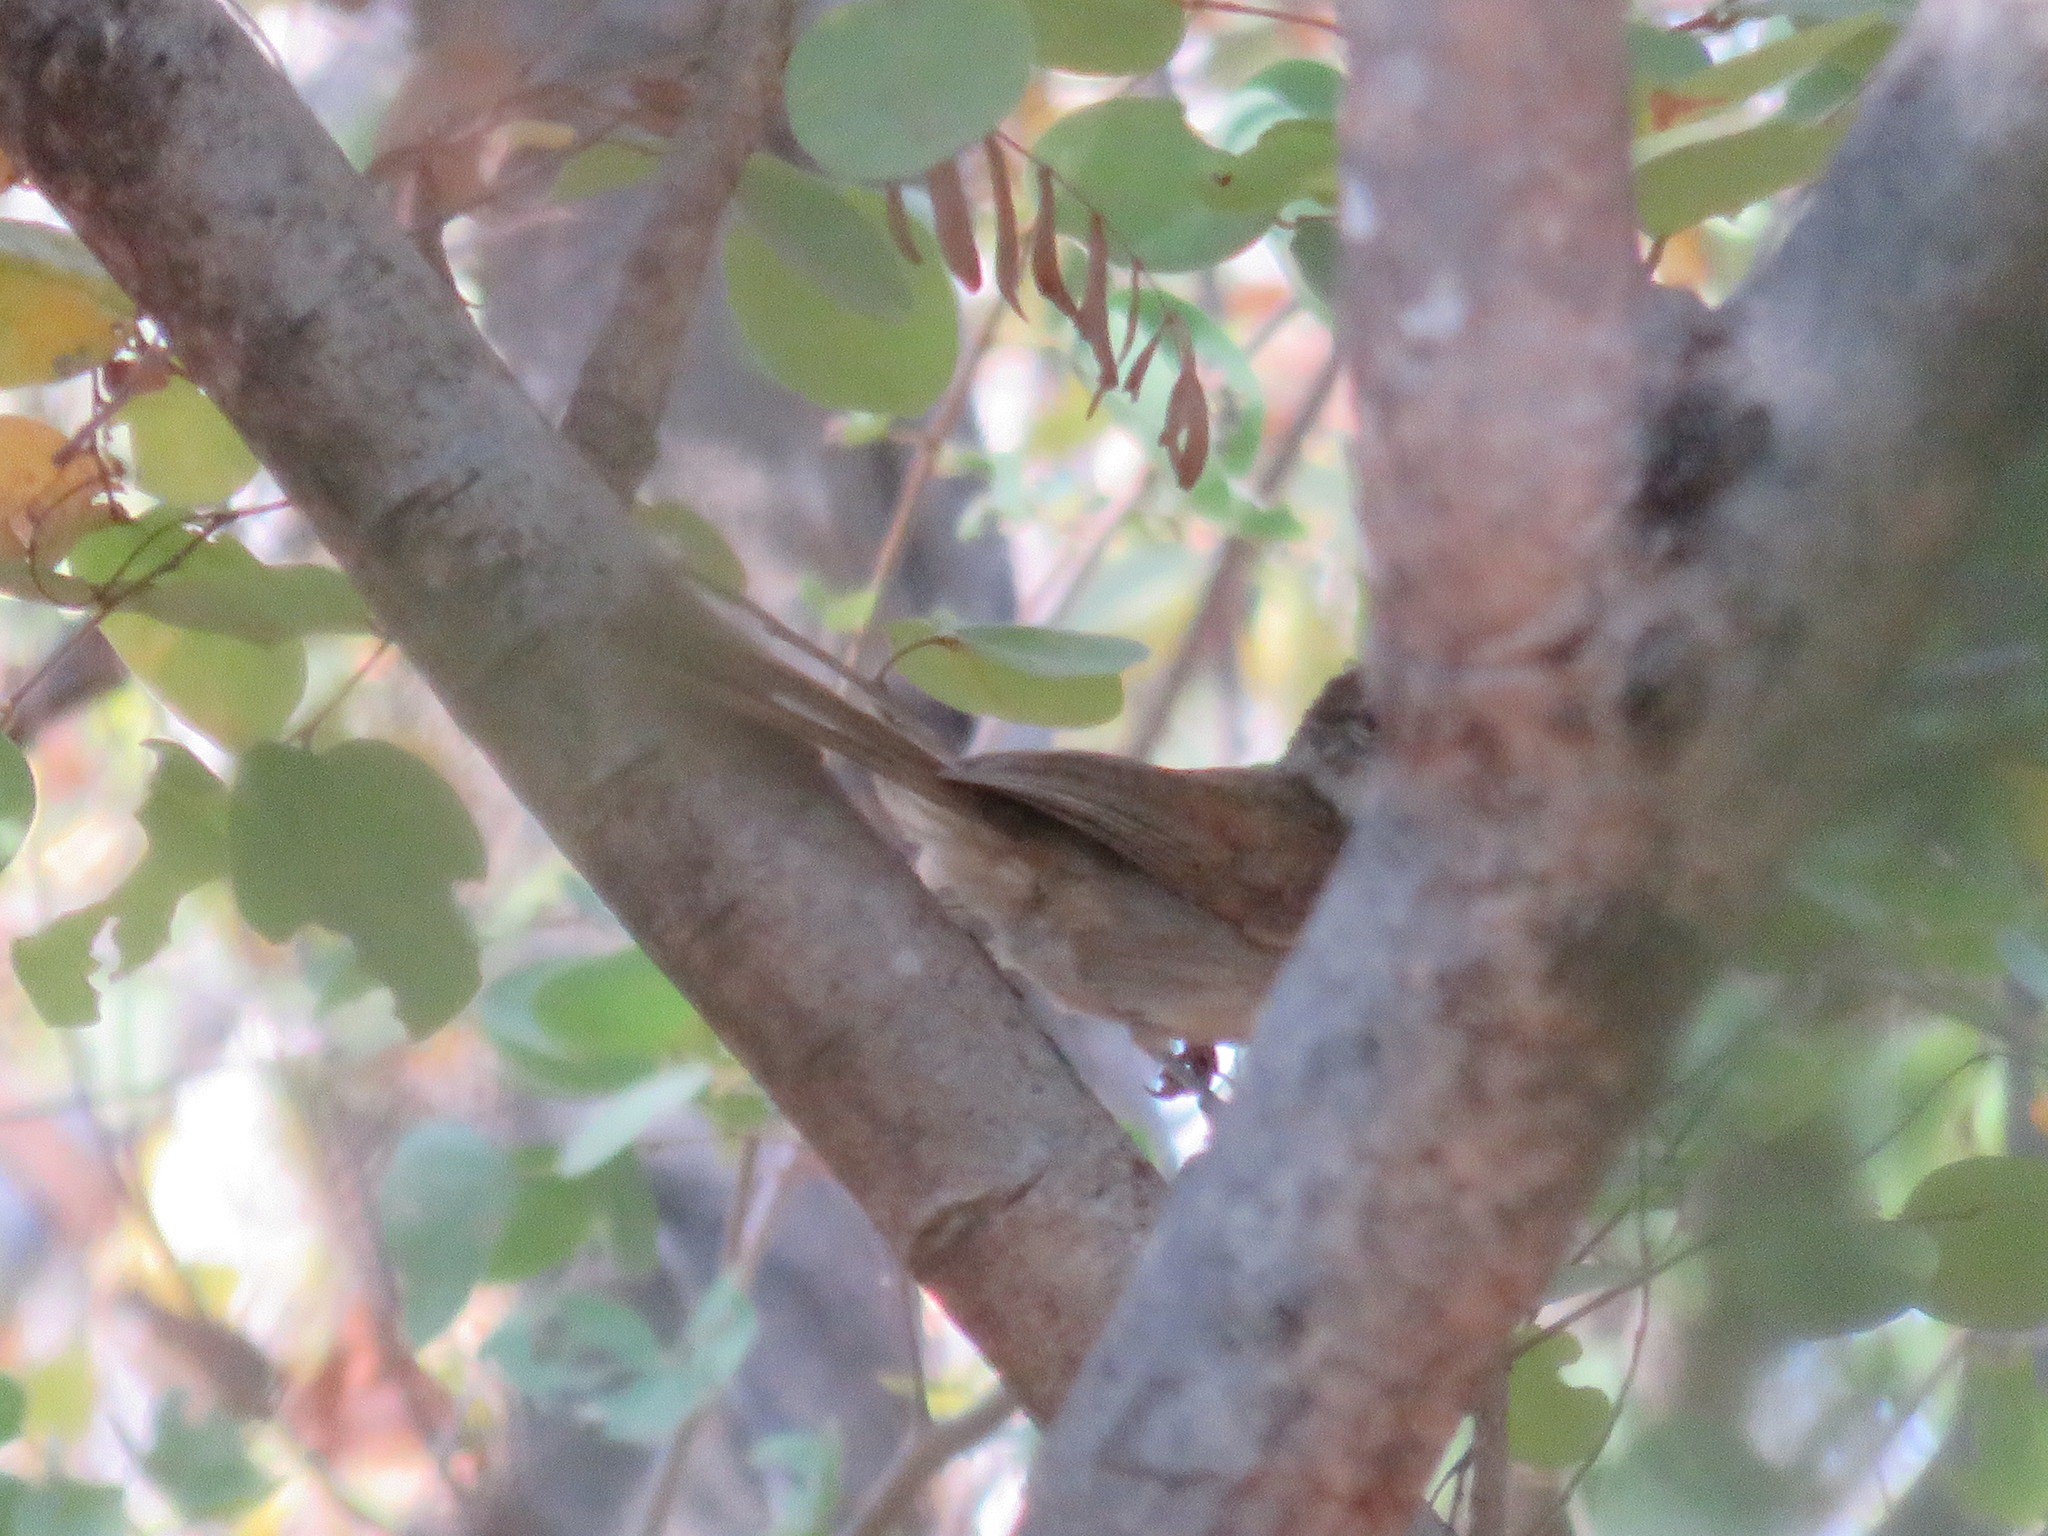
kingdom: Animalia
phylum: Chordata
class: Aves
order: Passeriformes
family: Pycnonotidae
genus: Phyllastrephus
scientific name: Phyllastrephus terrestris
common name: Terrestrial brownbul
